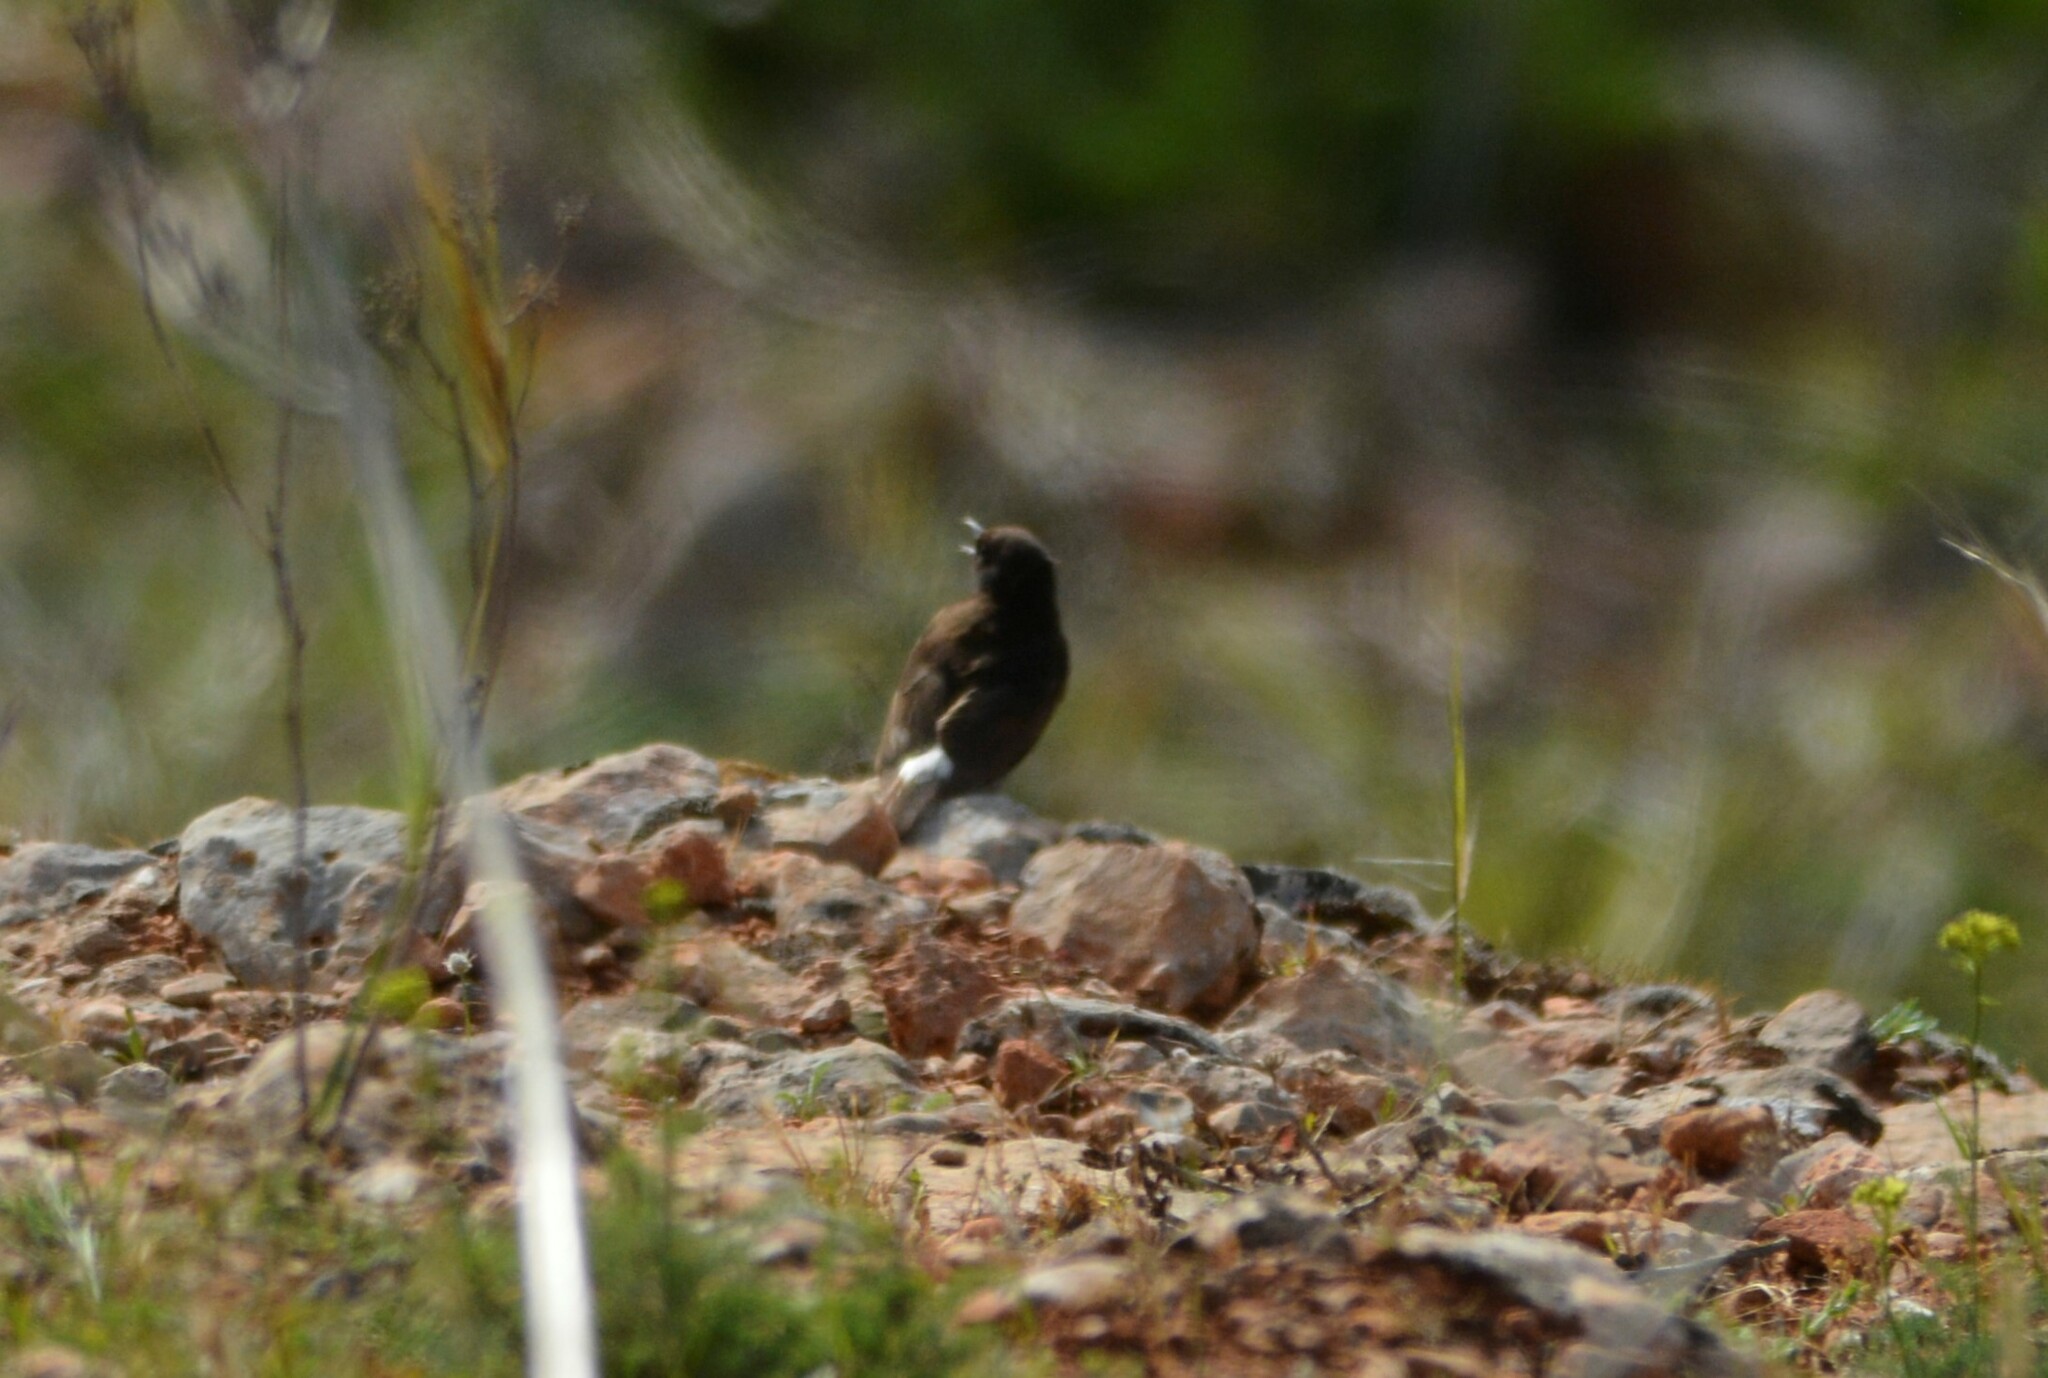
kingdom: Animalia
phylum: Chordata
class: Aves
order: Passeriformes
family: Muscicapidae
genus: Oenanthe
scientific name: Oenanthe leucura
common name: Black wheatear
